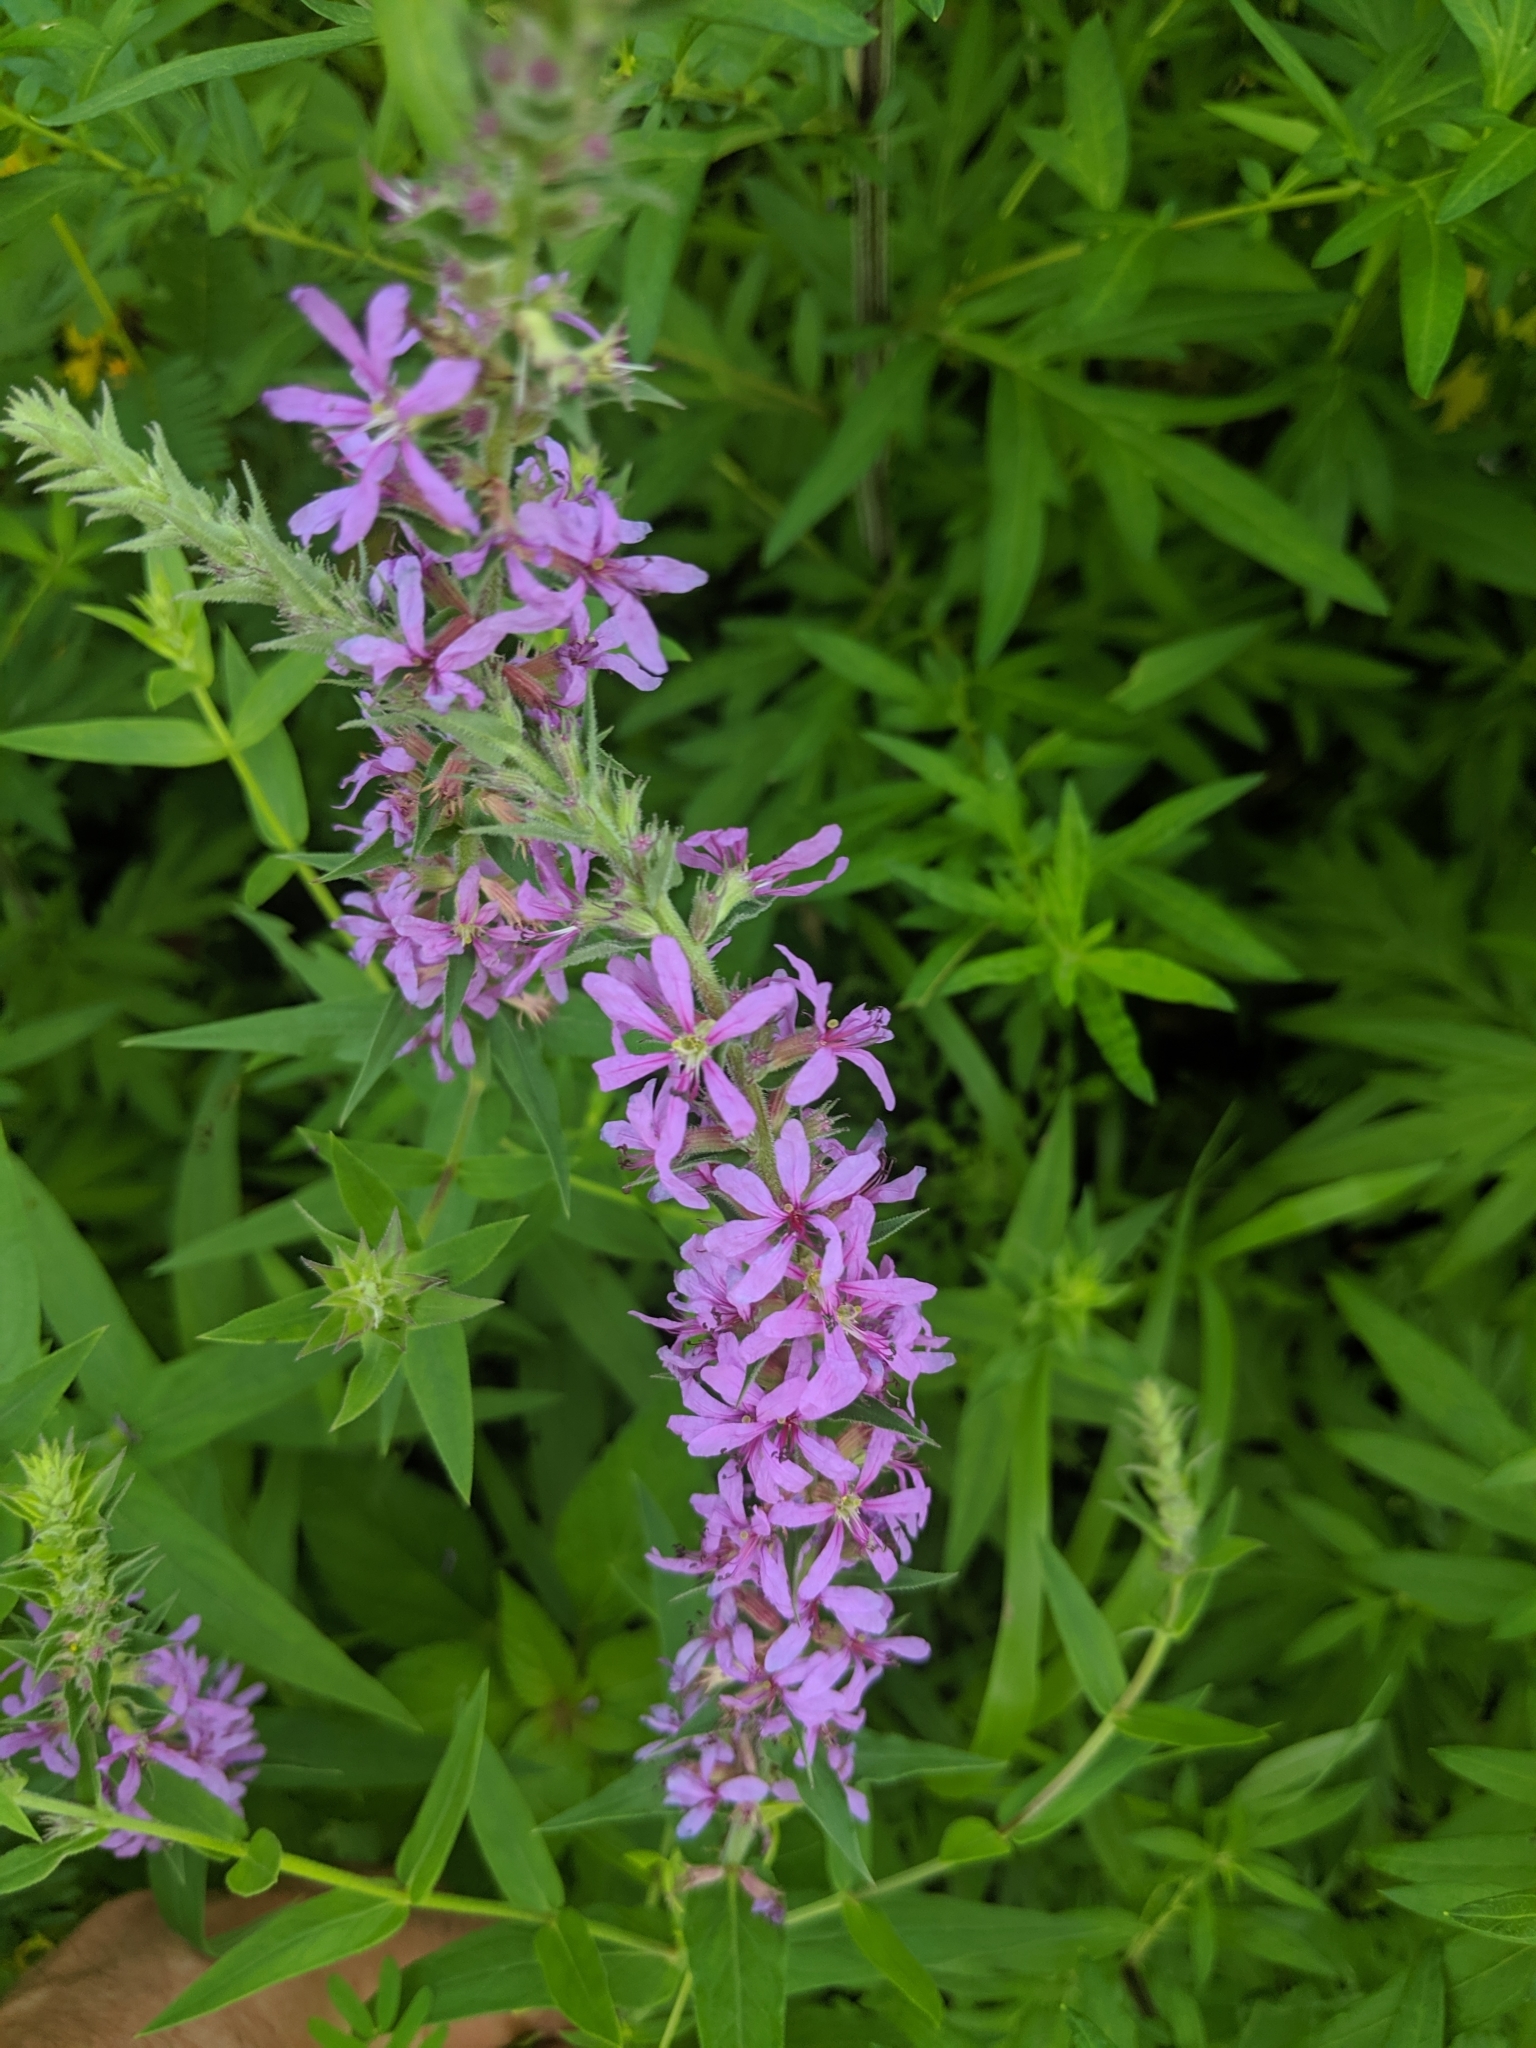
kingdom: Plantae
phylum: Tracheophyta
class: Magnoliopsida
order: Myrtales
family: Lythraceae
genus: Lythrum
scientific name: Lythrum salicaria
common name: Purple loosestrife
